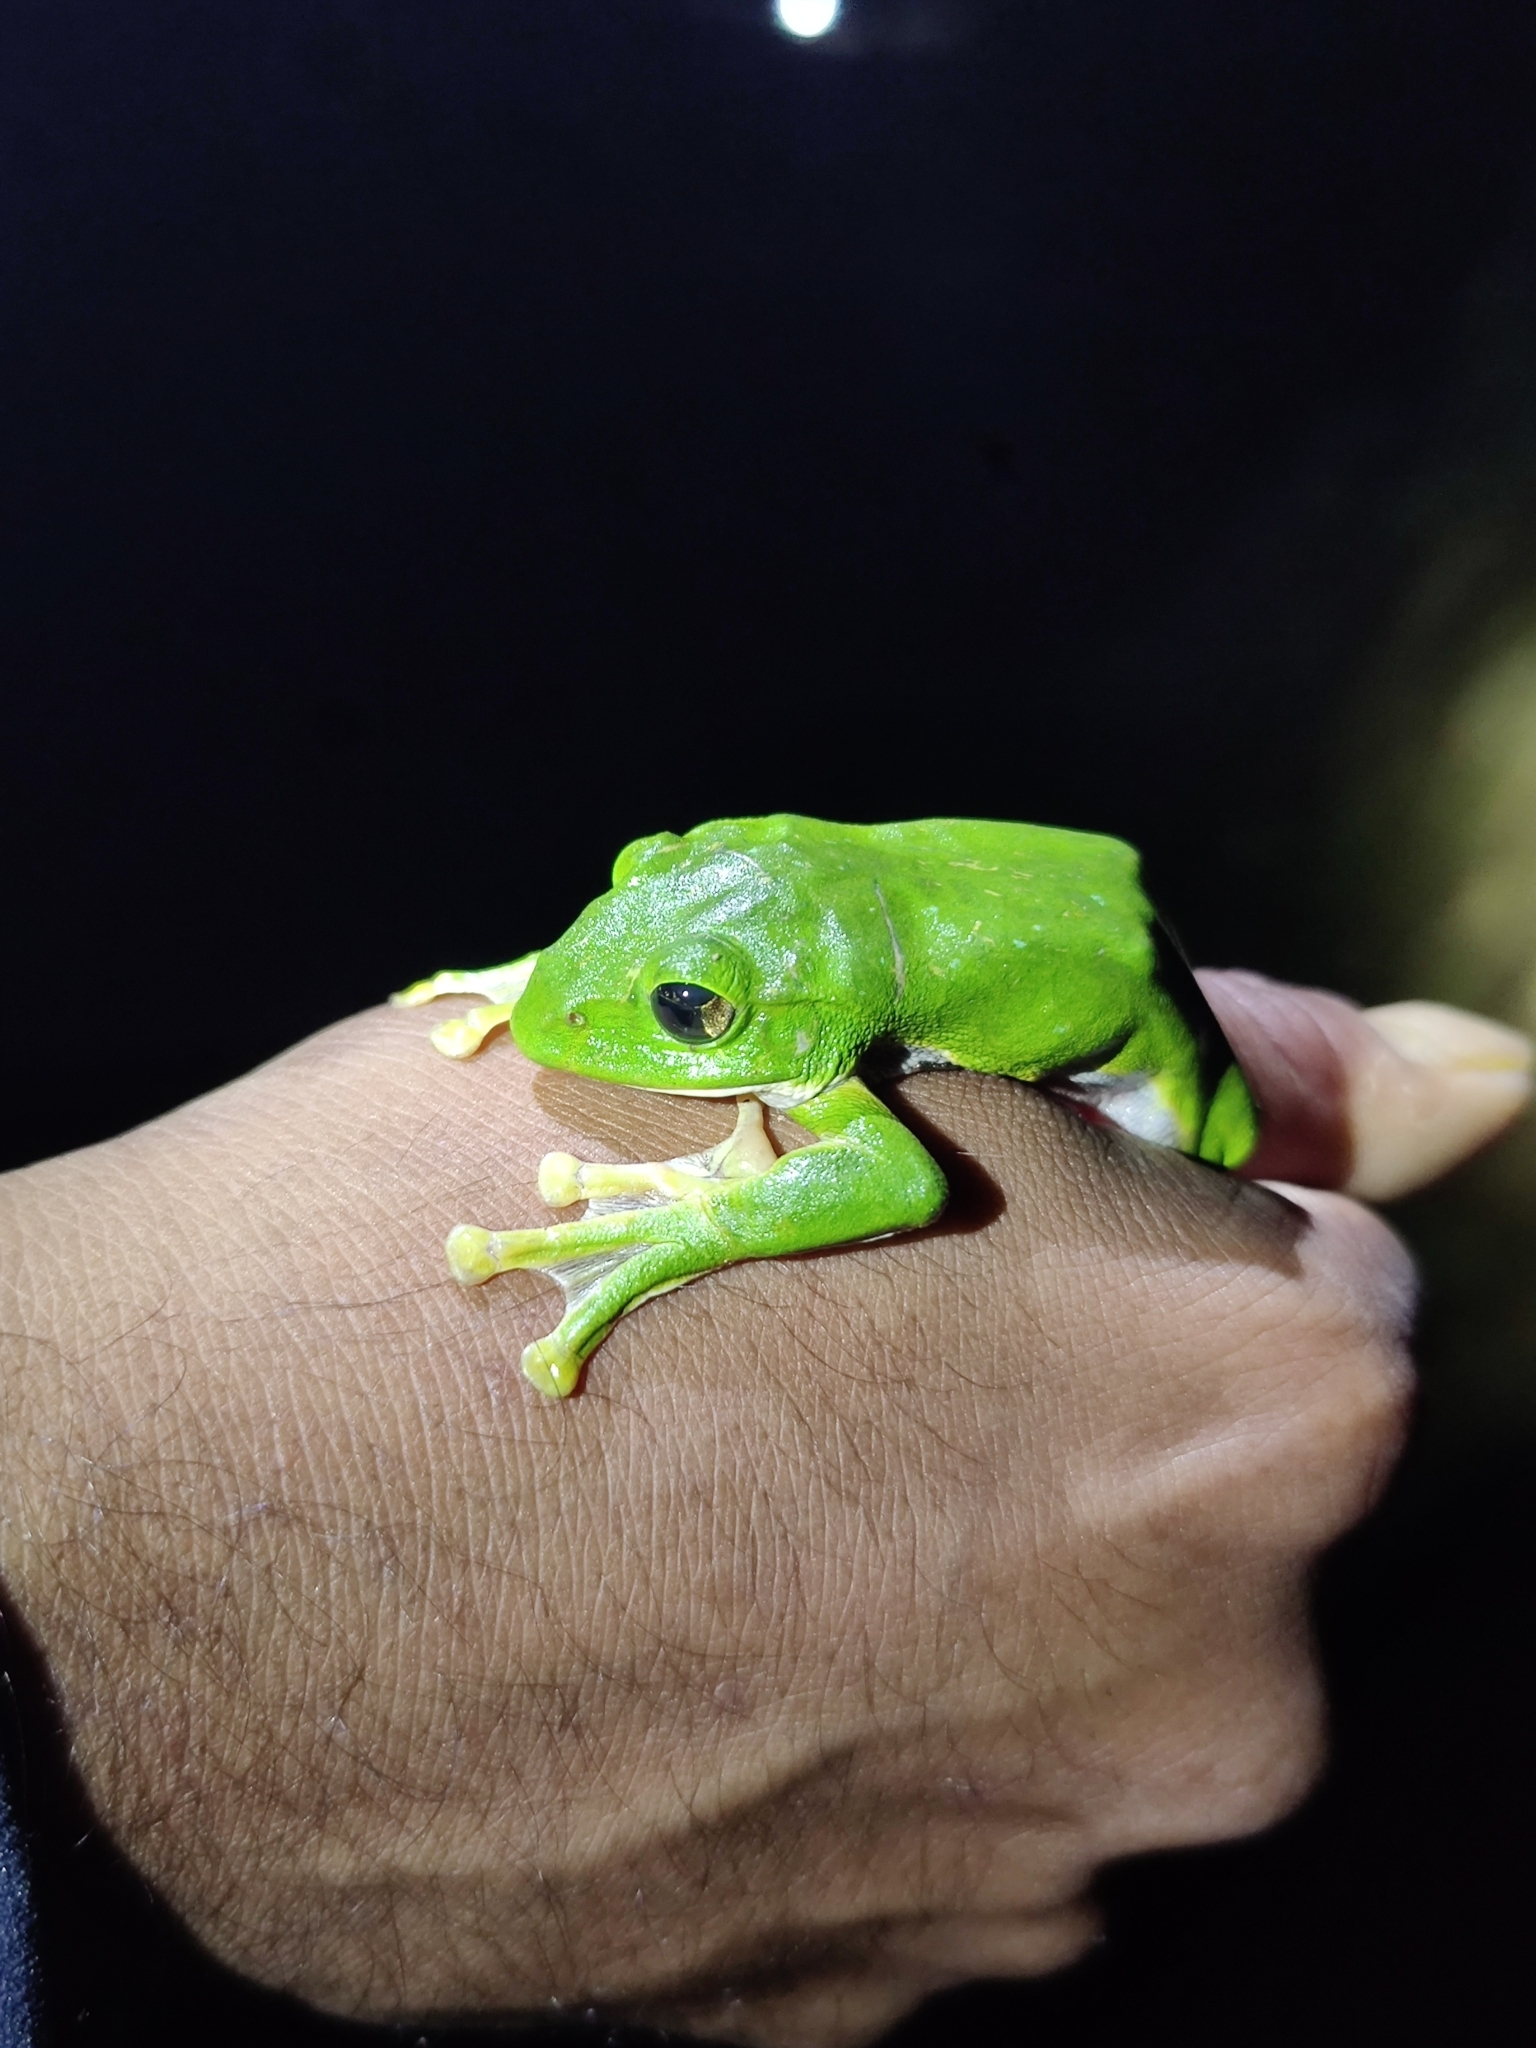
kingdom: Animalia
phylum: Chordata
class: Amphibia
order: Anura
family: Rhacophoridae
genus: Zhangixalus
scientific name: Zhangixalus smaragdinus
